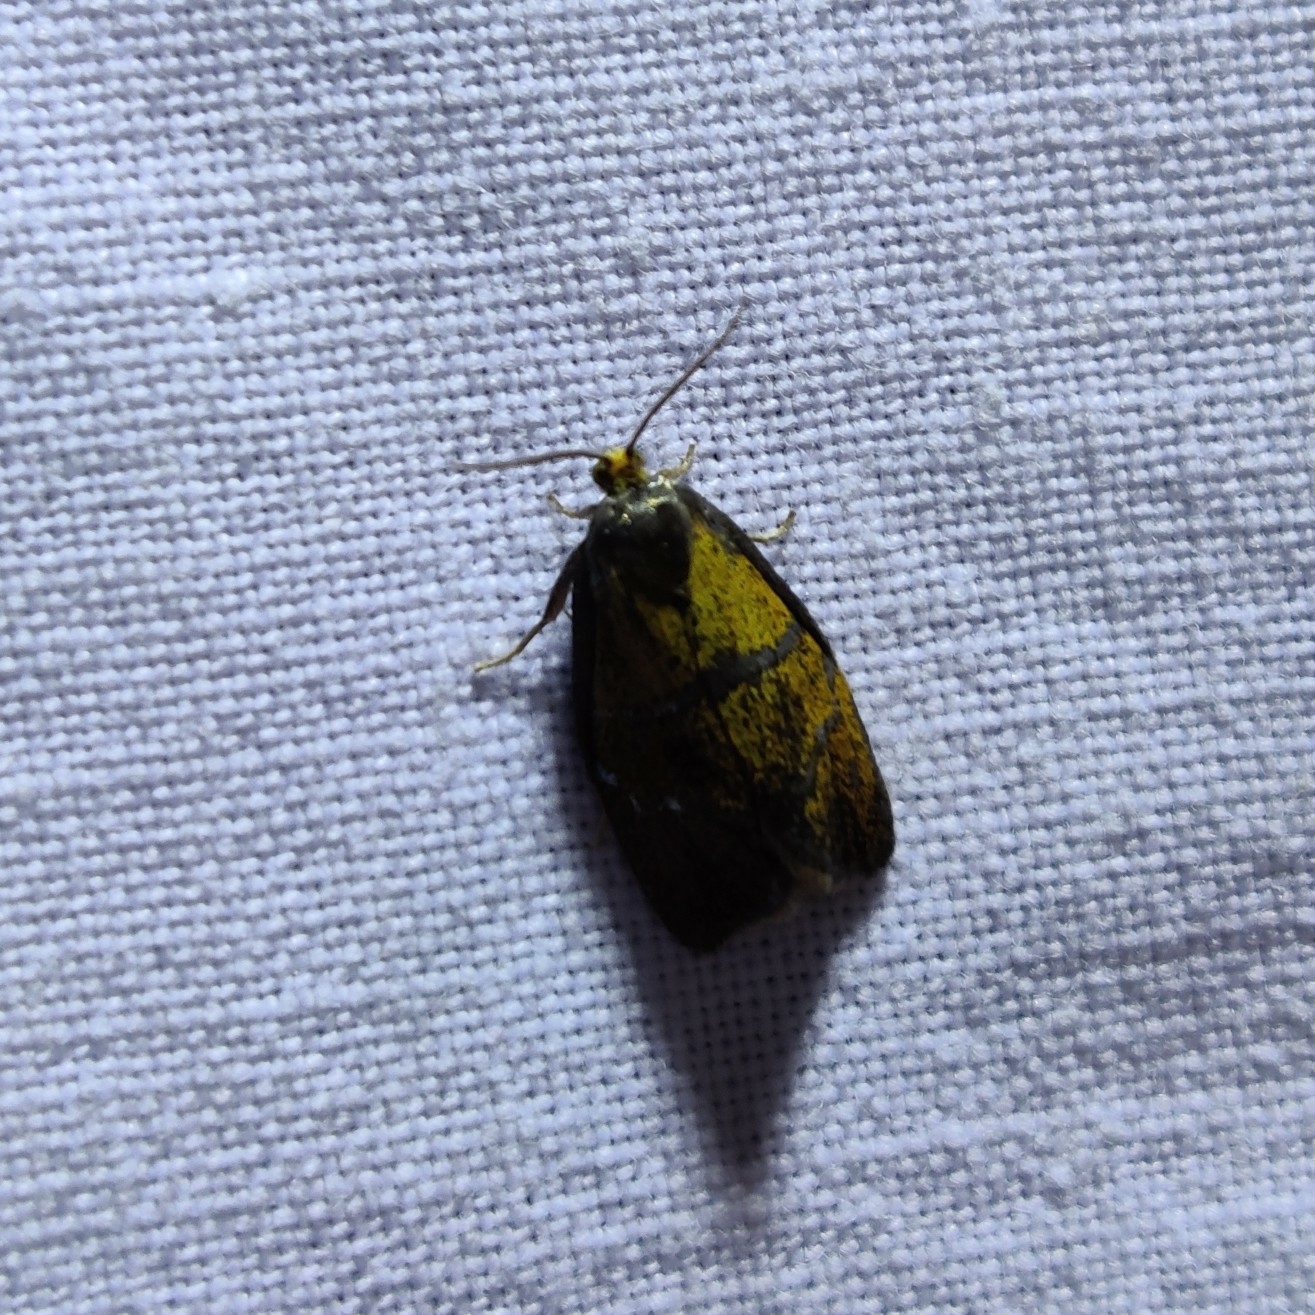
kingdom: Animalia
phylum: Arthropoda
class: Insecta
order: Lepidoptera
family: Tortricidae
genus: Ptycholoma
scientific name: Ptycholoma lecheana
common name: Leches twist moth
